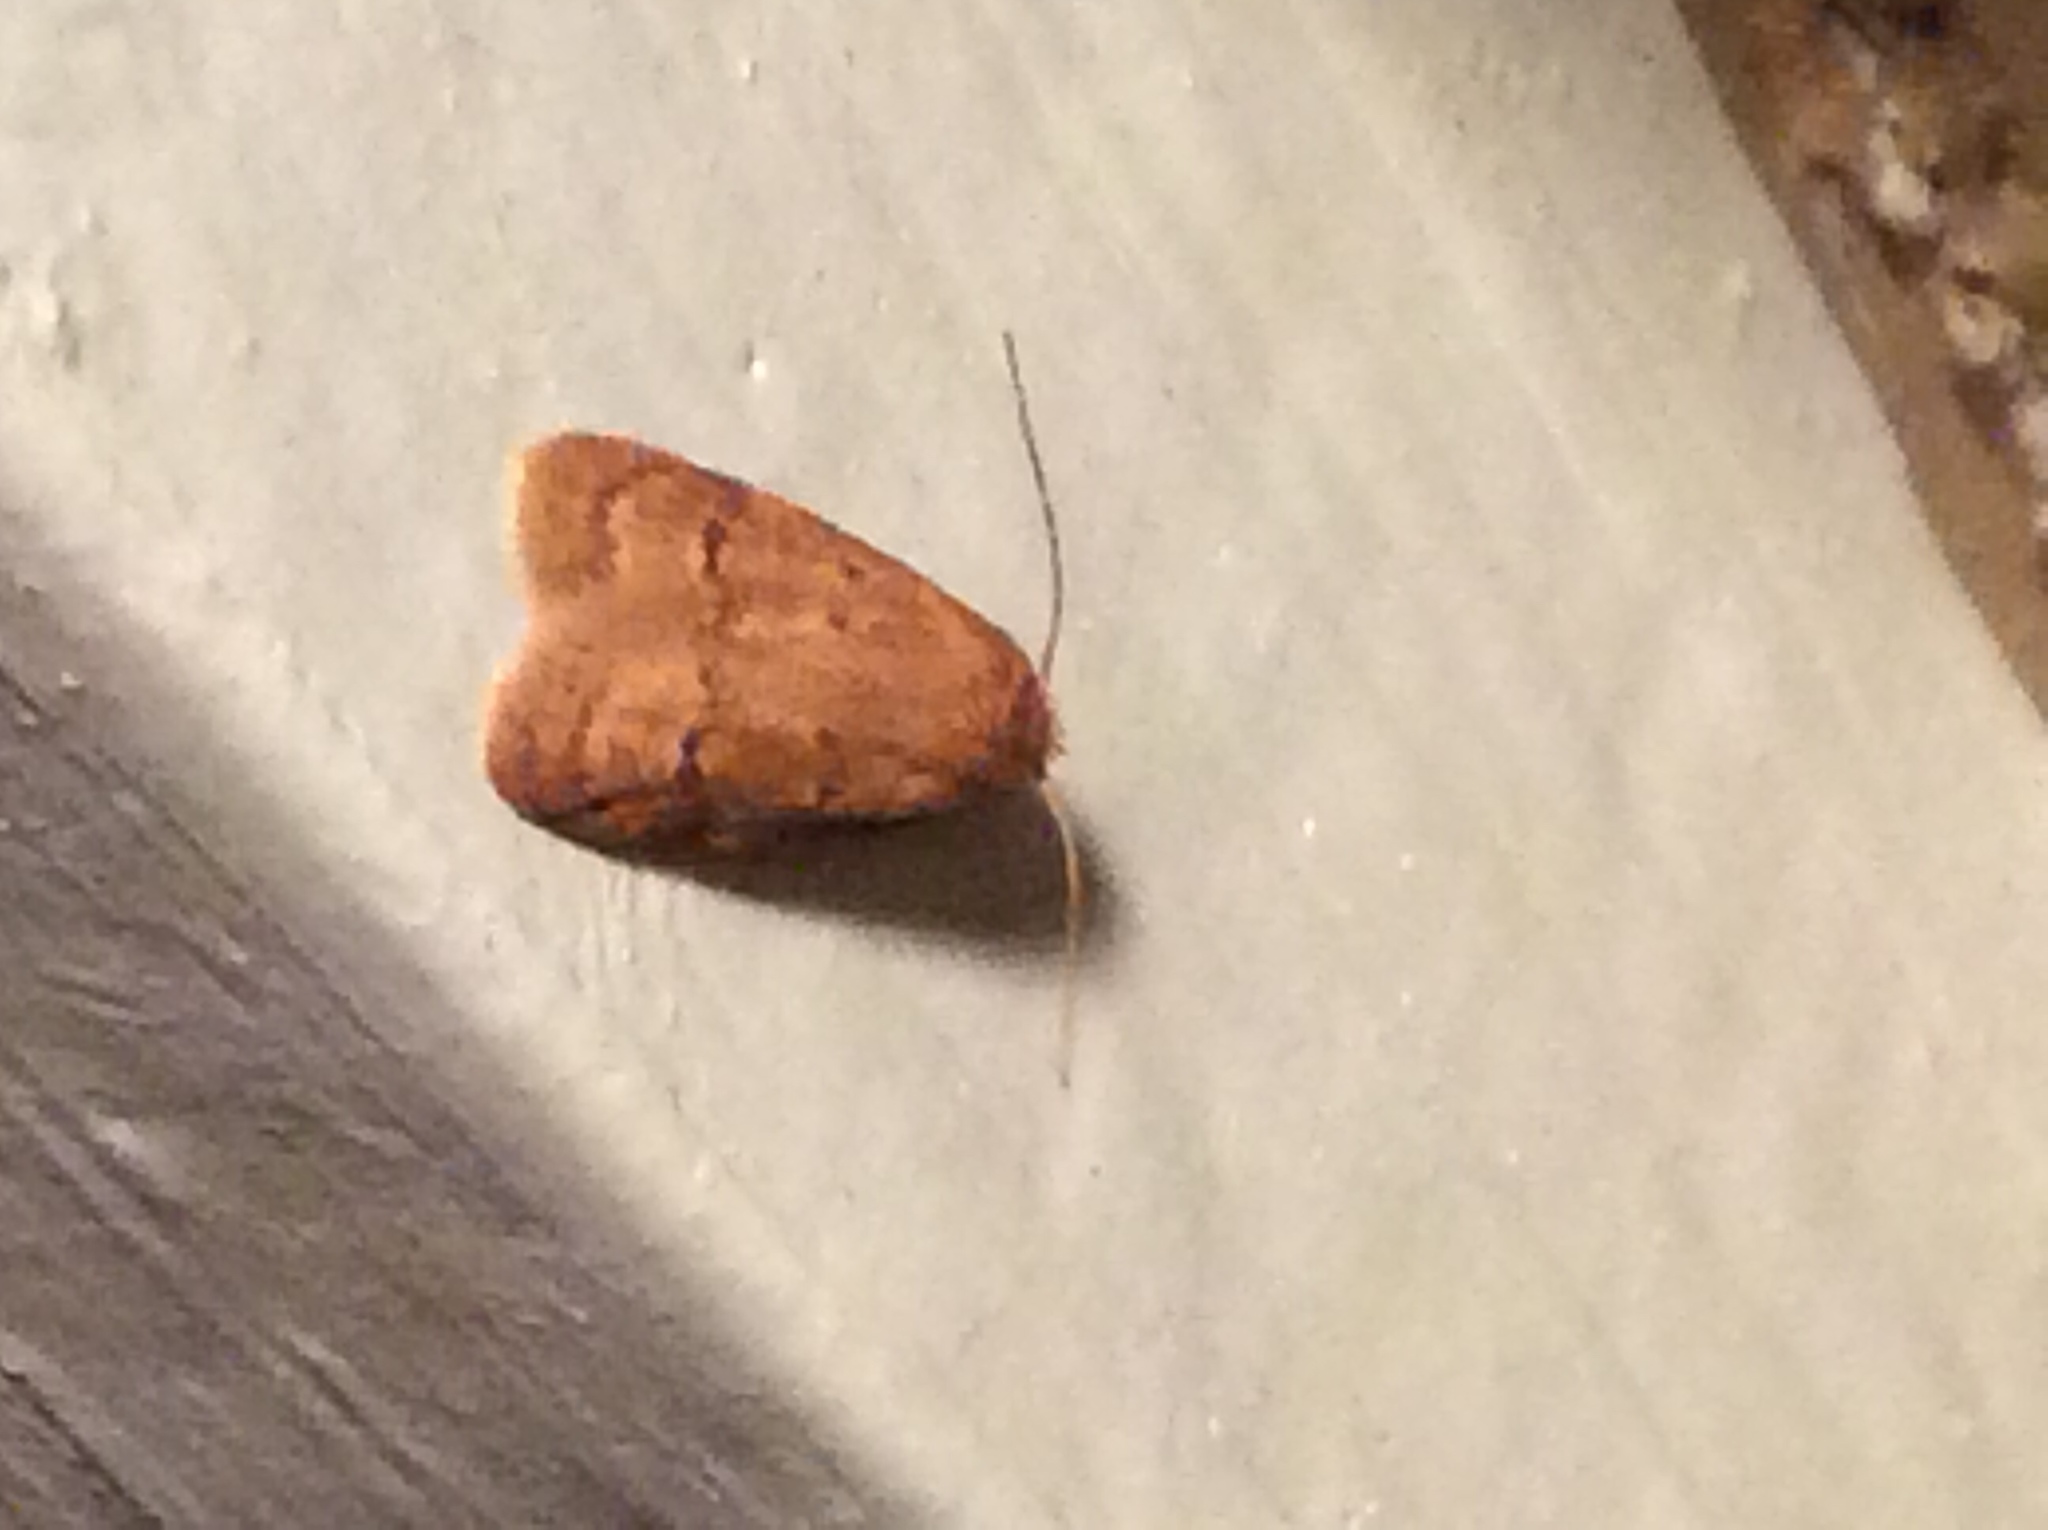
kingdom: Animalia
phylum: Arthropoda
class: Insecta
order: Lepidoptera
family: Autostichidae
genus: Gerdana
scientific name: Gerdana caritella
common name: Gerdana moth
